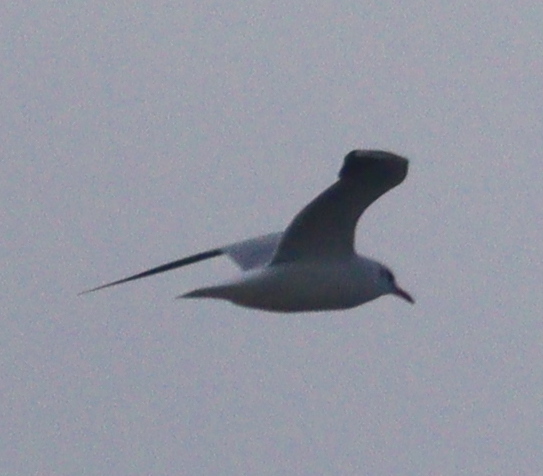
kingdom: Animalia
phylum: Chordata
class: Aves
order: Charadriiformes
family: Laridae
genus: Chroicocephalus
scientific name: Chroicocephalus ridibundus
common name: Black-headed gull
